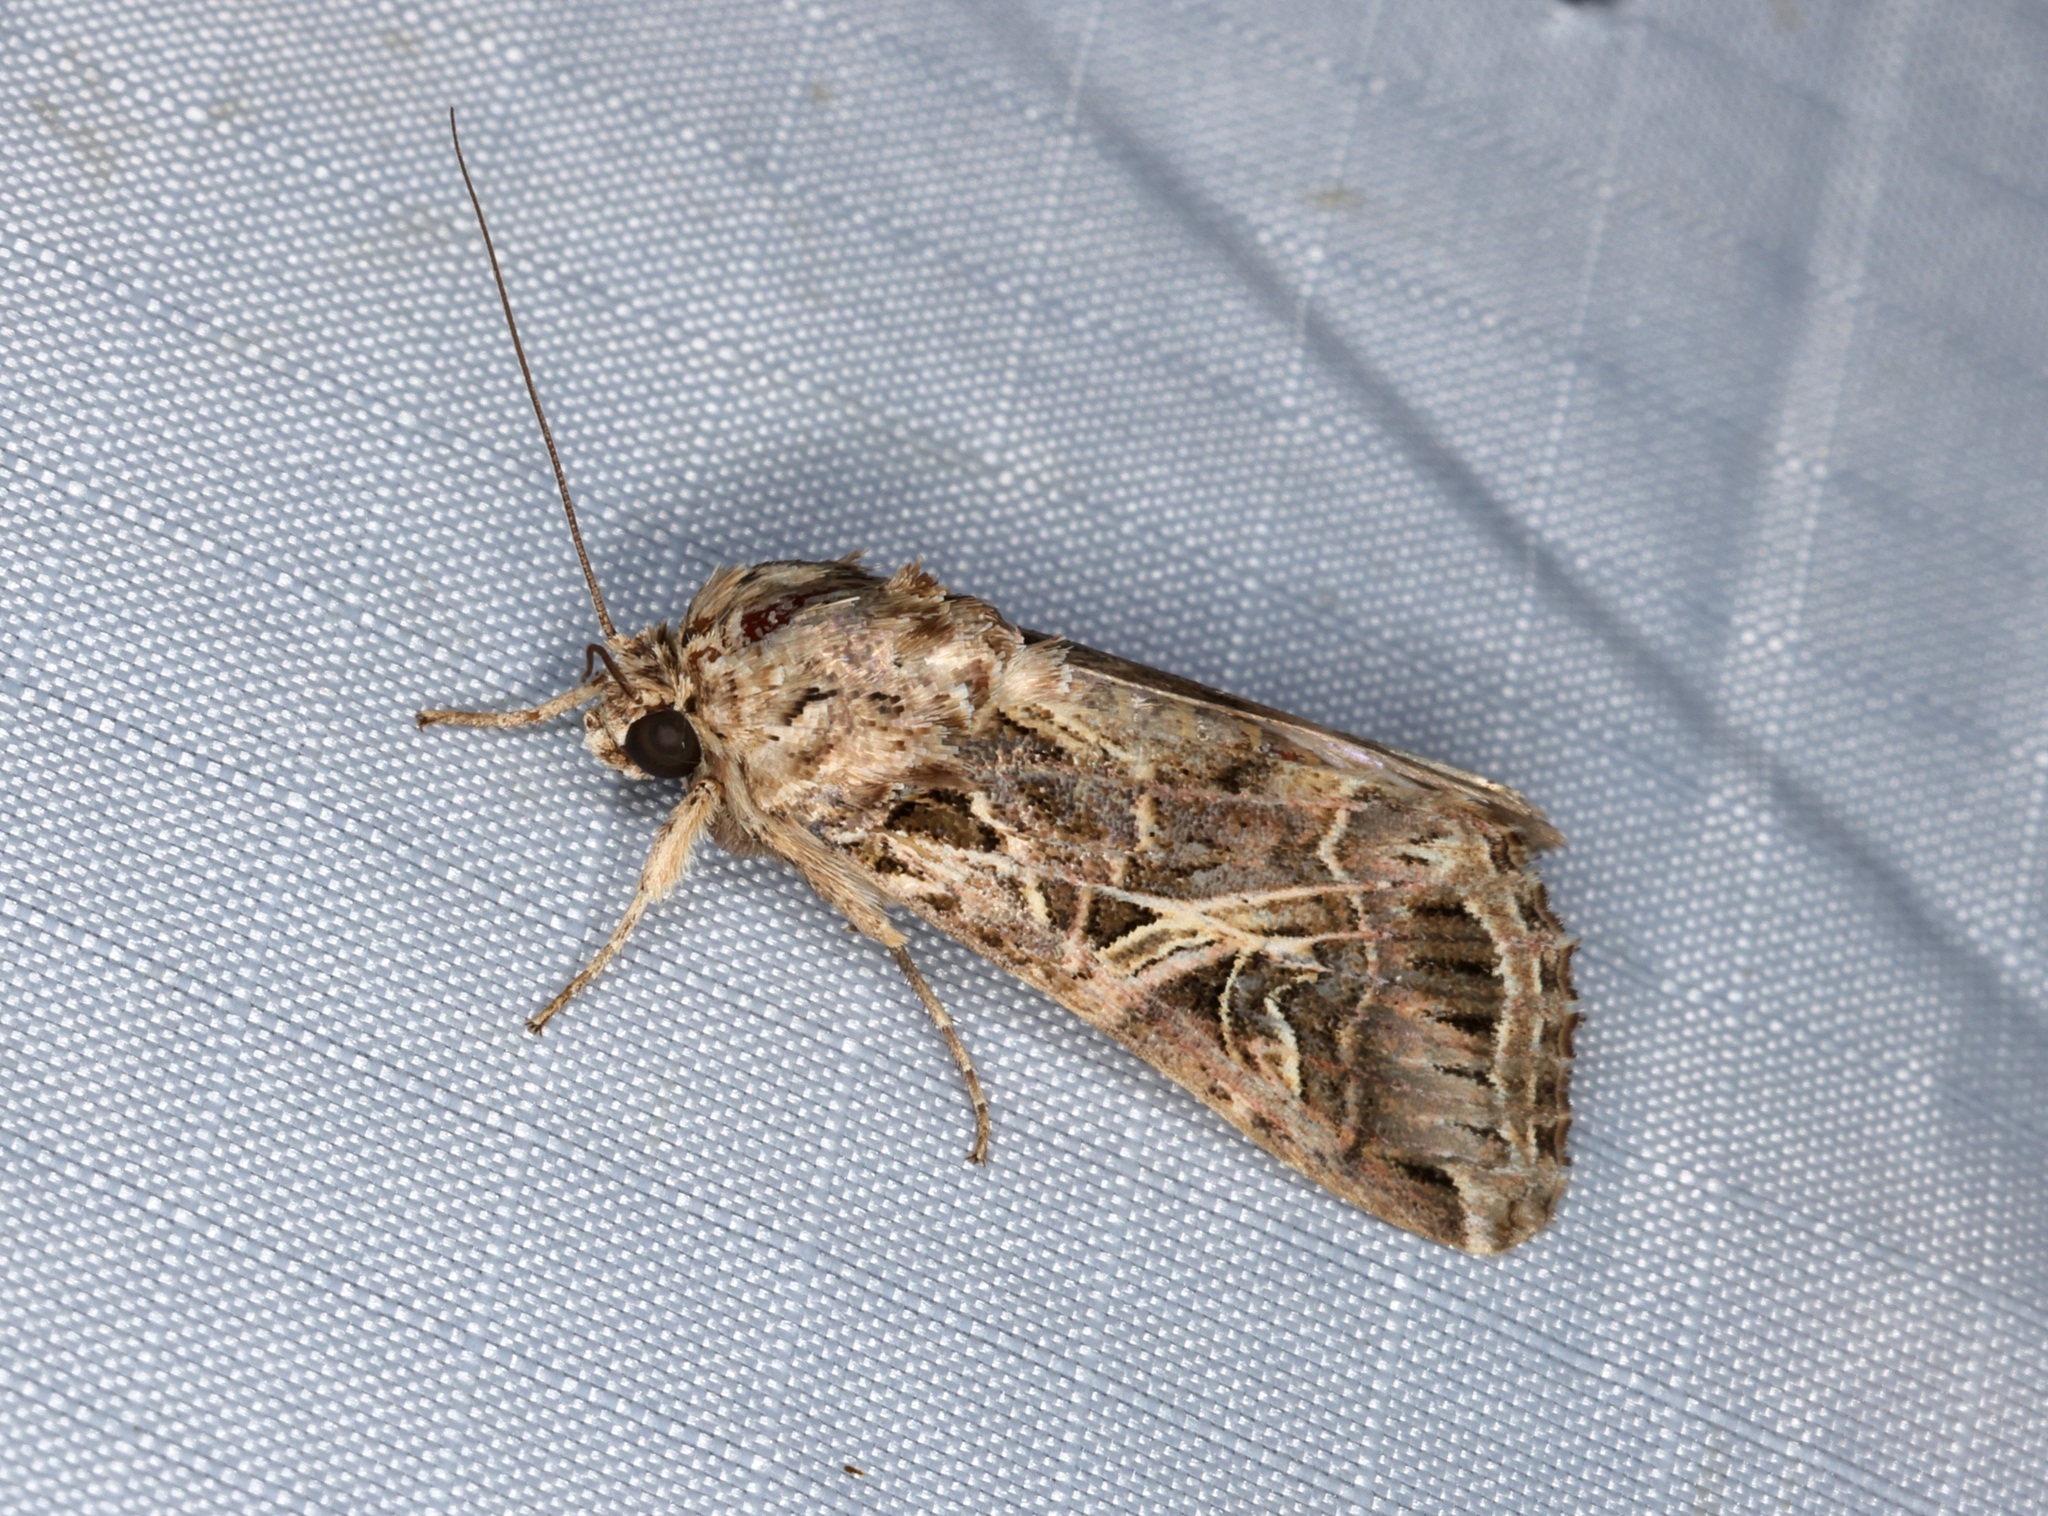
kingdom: Animalia
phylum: Arthropoda
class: Insecta
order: Lepidoptera
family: Noctuidae
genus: Spodoptera
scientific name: Spodoptera litura
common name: Asian cotton leafworm
